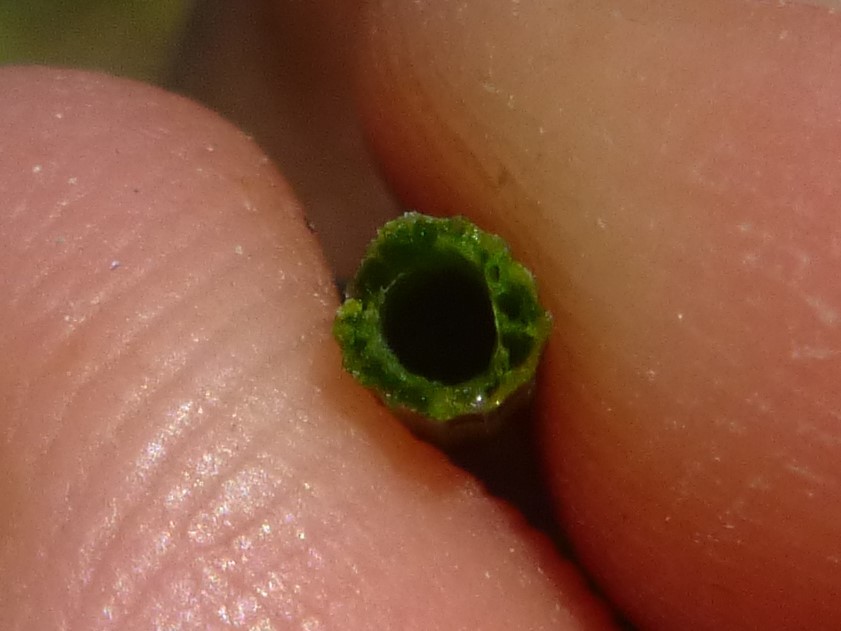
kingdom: Plantae
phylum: Tracheophyta
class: Polypodiopsida
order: Equisetales
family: Equisetaceae
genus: Equisetum
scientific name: Equisetum ramosissimum
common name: Branched horsetail
